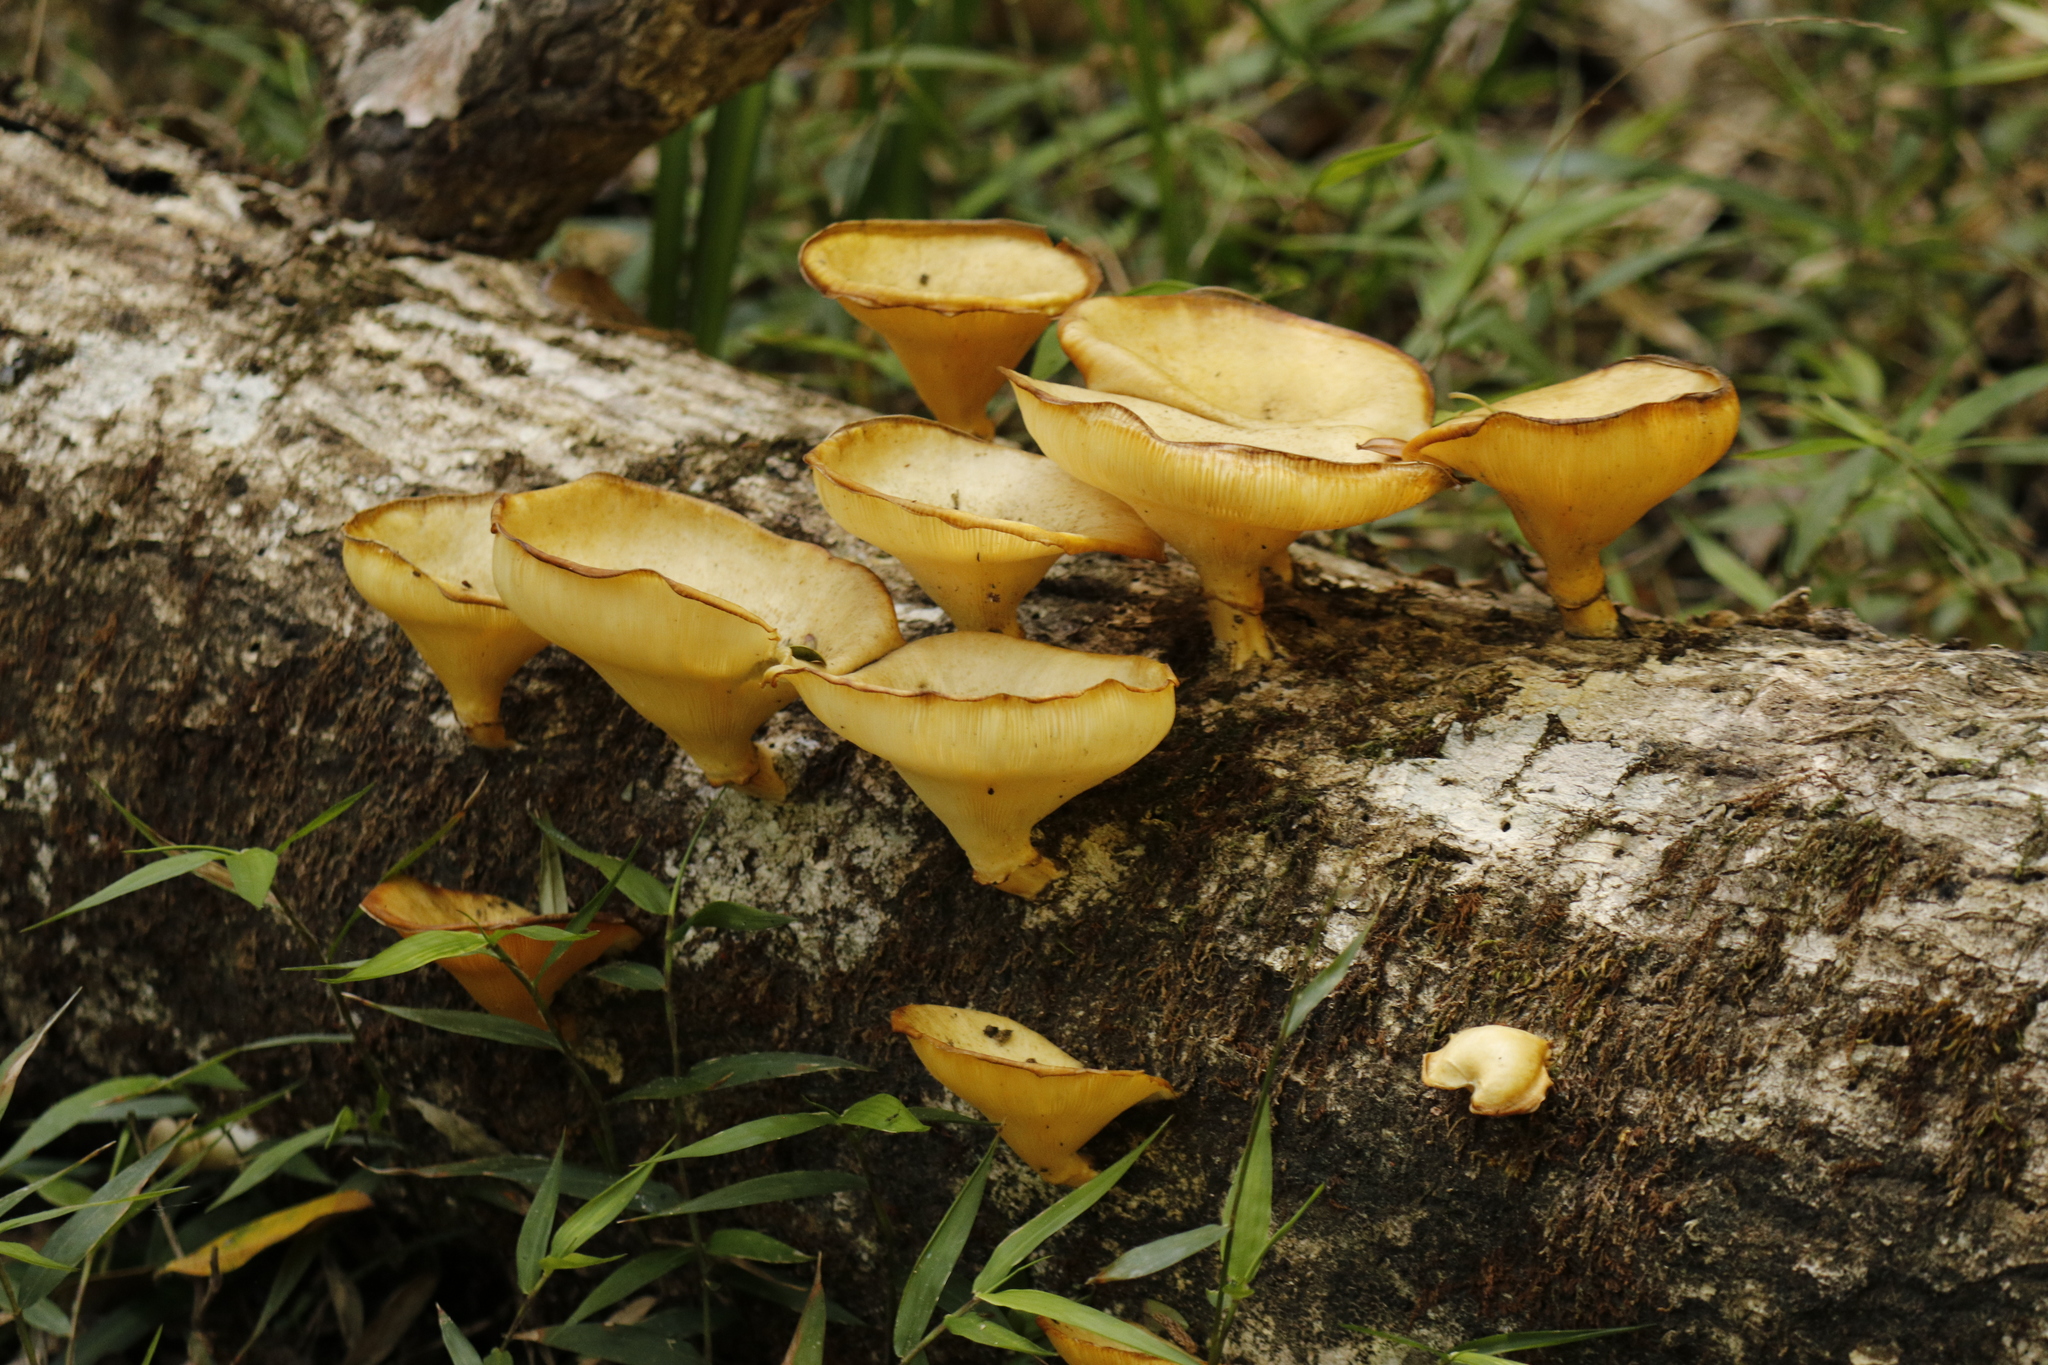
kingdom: Fungi
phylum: Basidiomycota
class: Agaricomycetes
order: Polyporales
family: Polyporaceae
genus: Lentinus
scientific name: Lentinus sajor-caju
